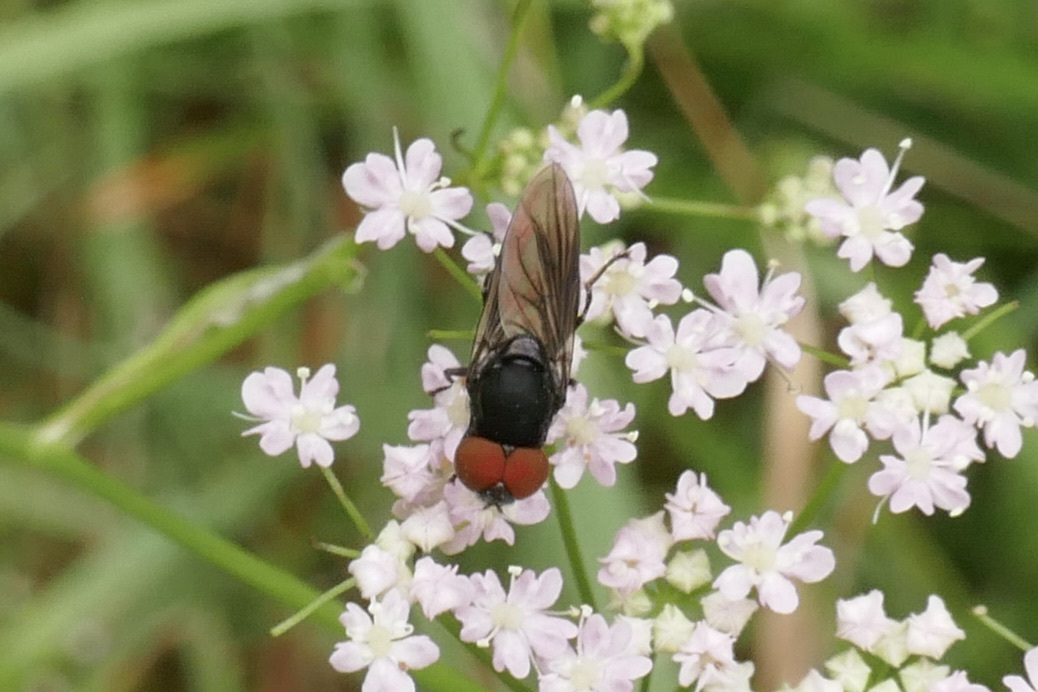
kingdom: Animalia
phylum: Arthropoda
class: Insecta
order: Diptera
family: Syrphidae
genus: Chrysogaster
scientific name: Chrysogaster solstitialis
